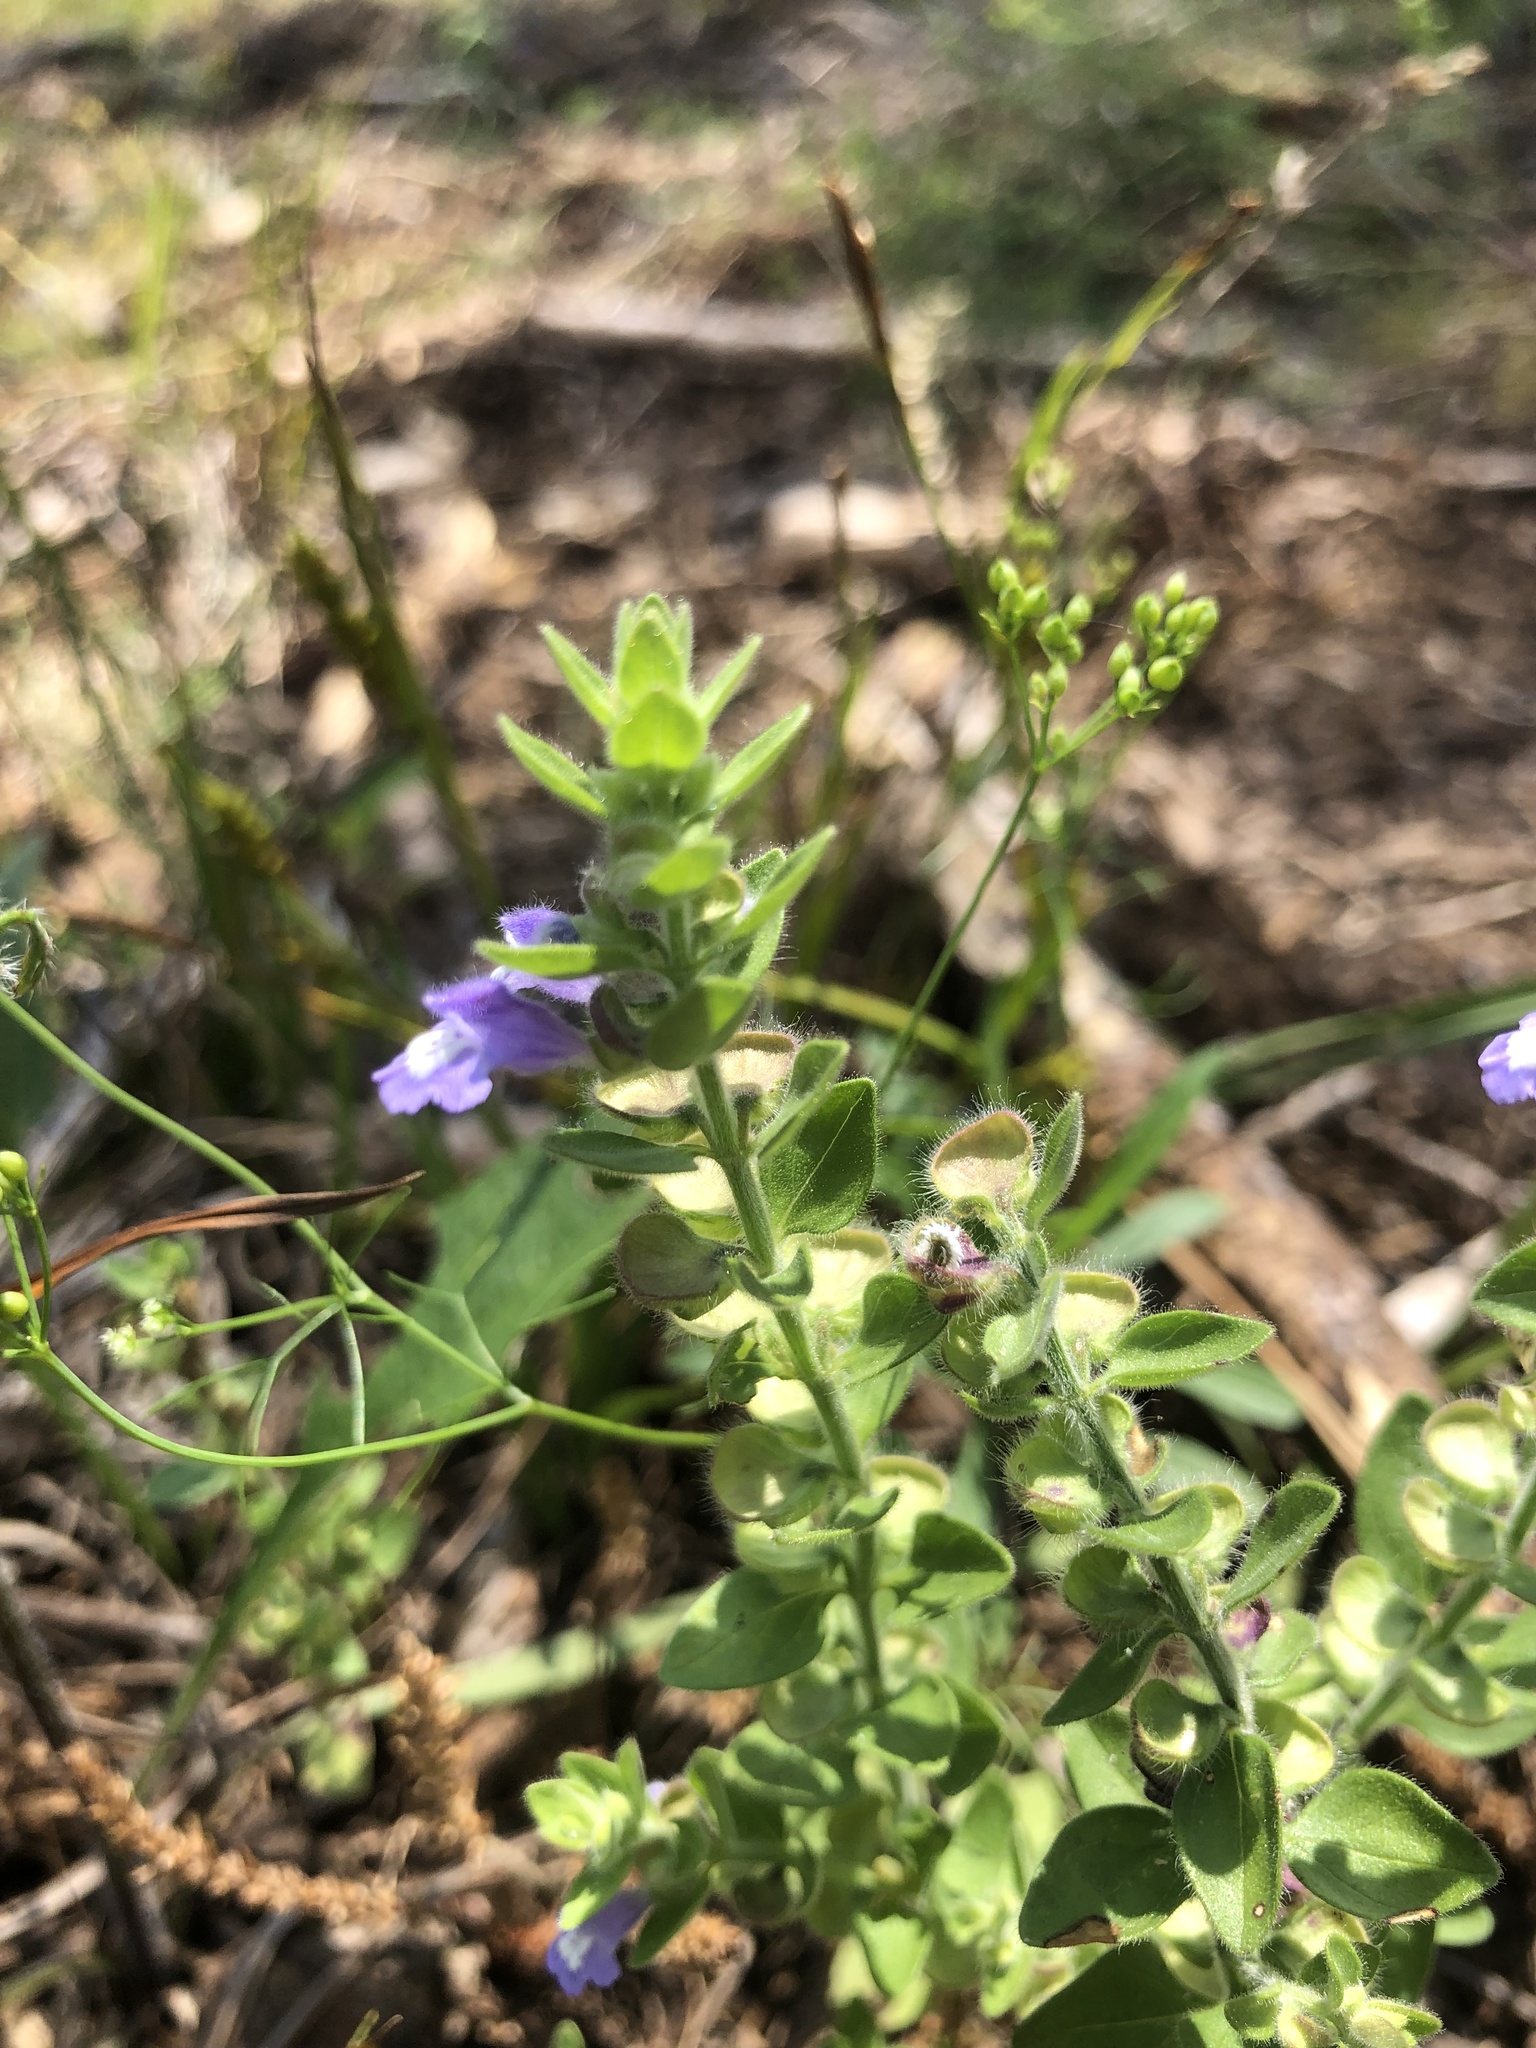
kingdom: Plantae
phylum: Tracheophyta
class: Magnoliopsida
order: Lamiales
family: Lamiaceae
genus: Scutellaria
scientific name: Scutellaria parvula
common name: Little scullcap
